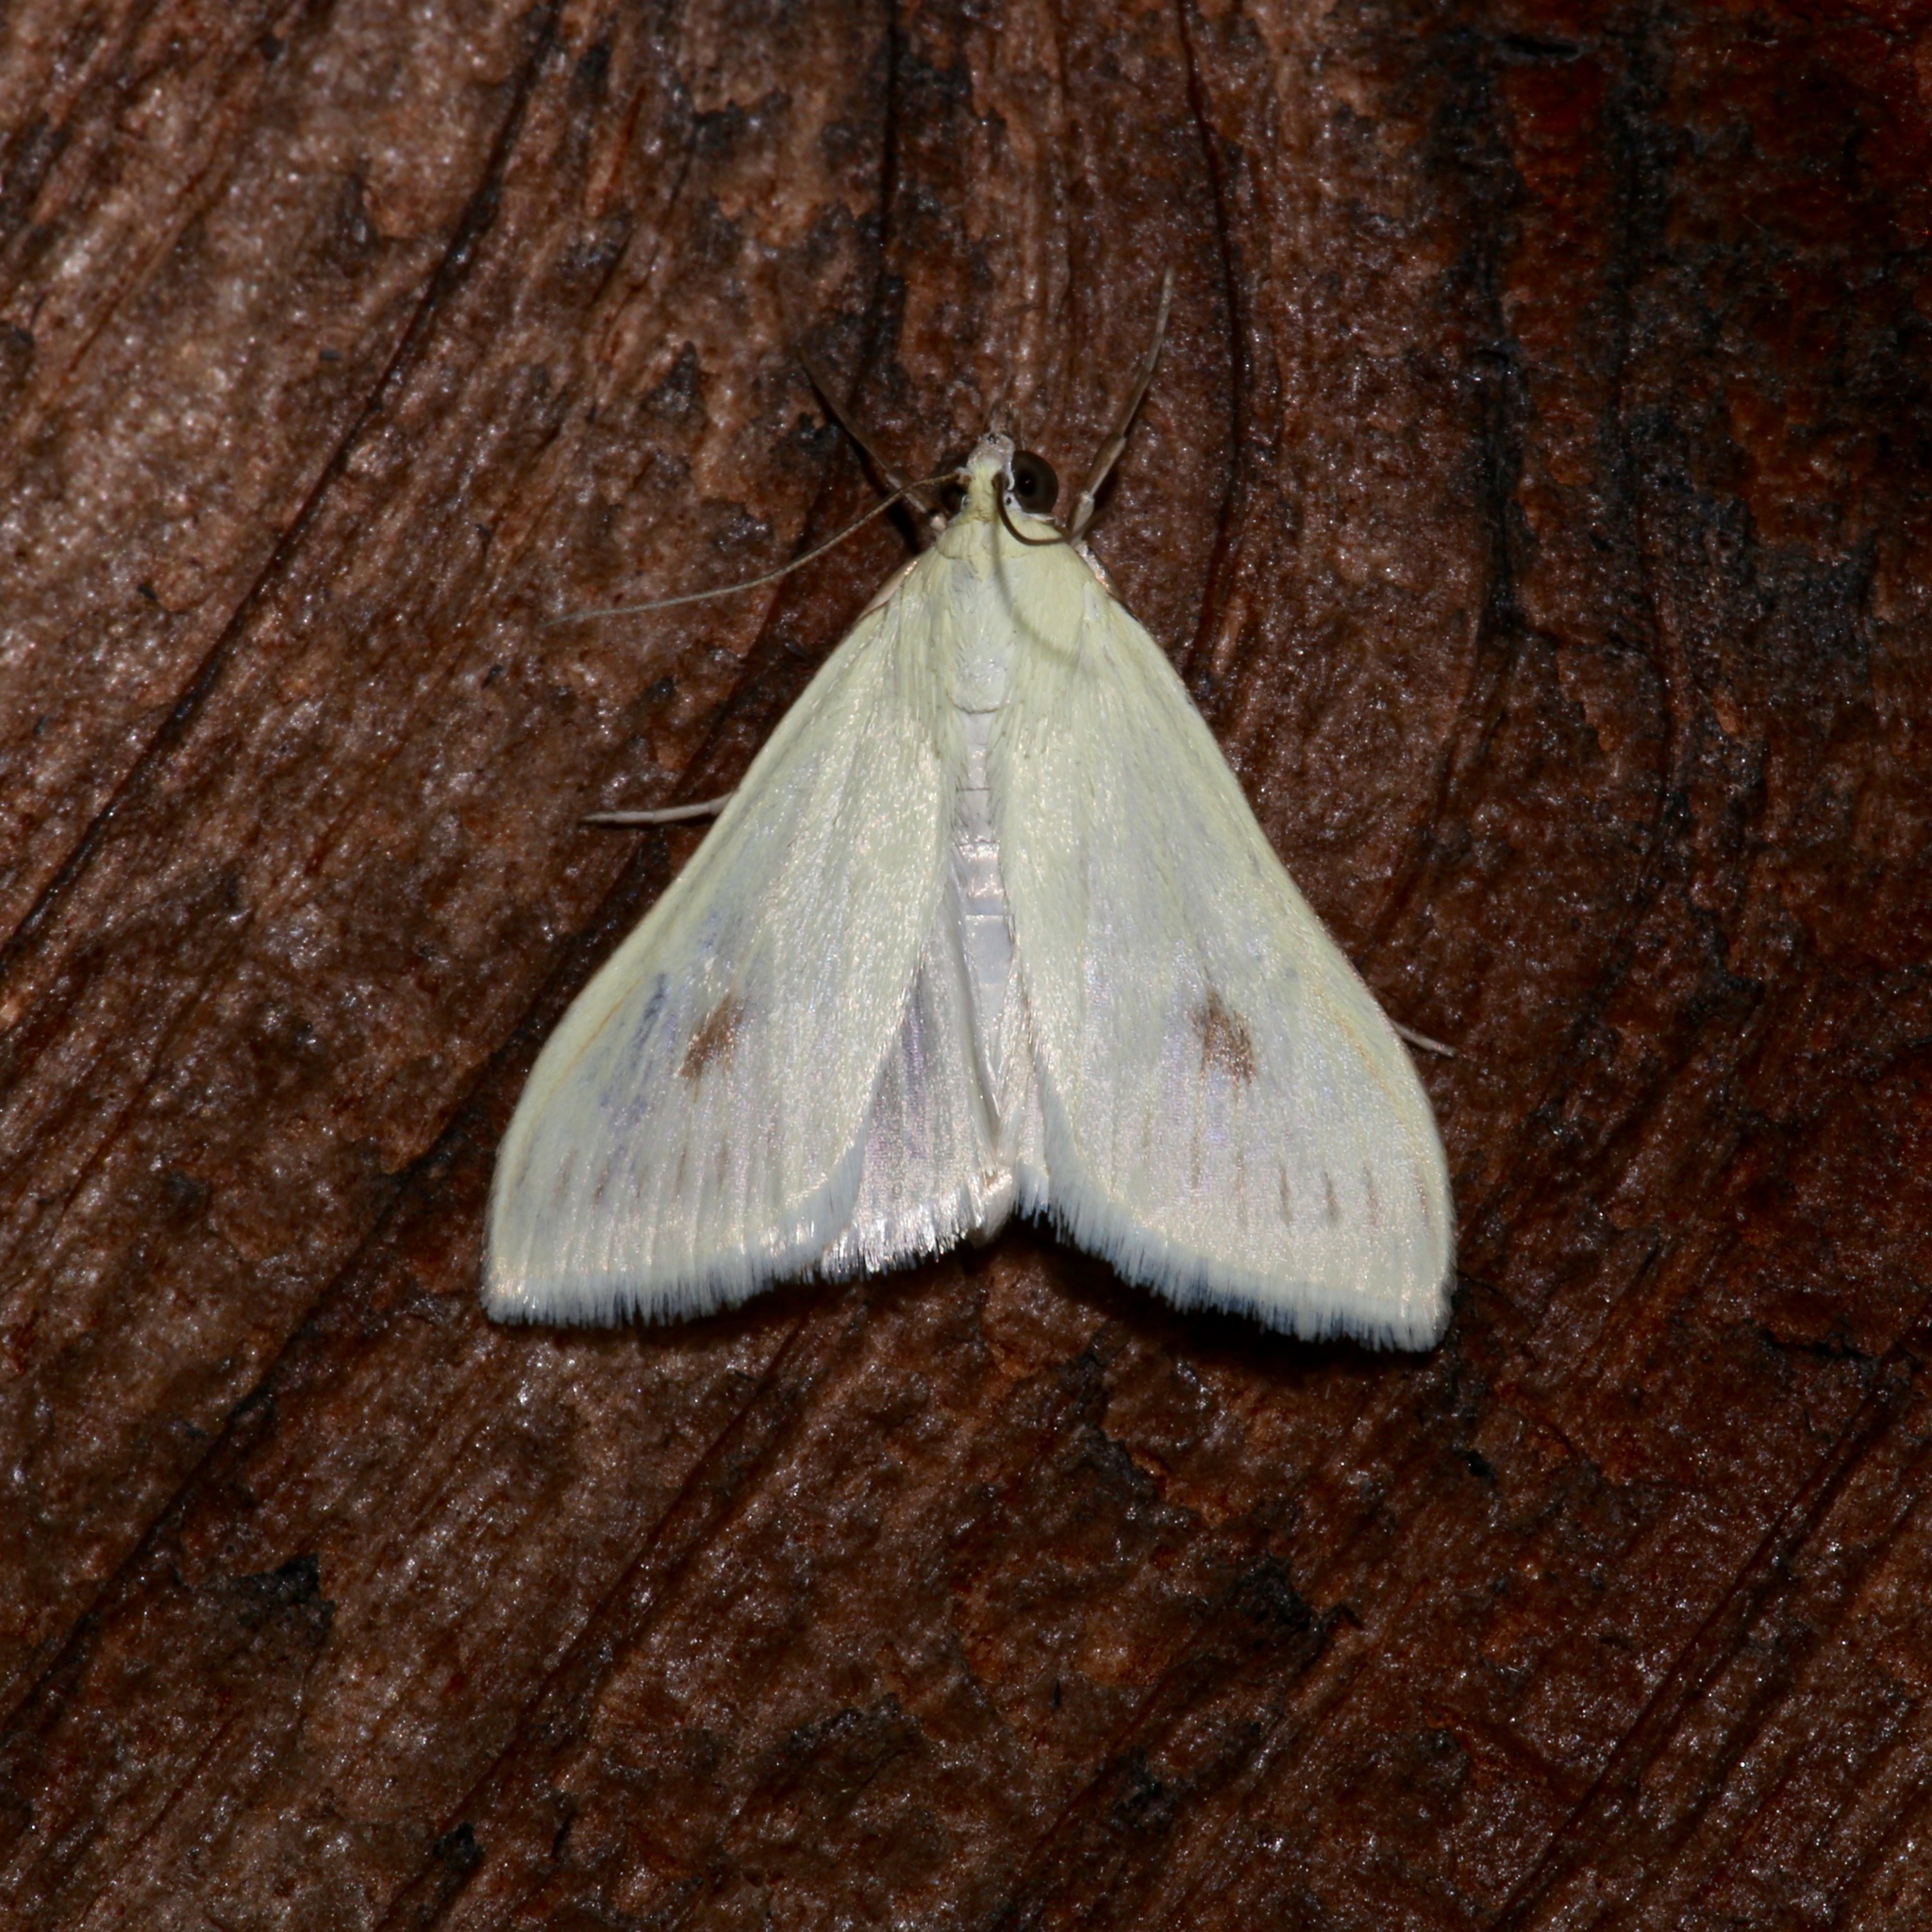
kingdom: Animalia
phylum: Arthropoda
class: Insecta
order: Lepidoptera
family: Crambidae
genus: Sitochroa
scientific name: Sitochroa palealis
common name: Greenish-yellow sitochroa moth
